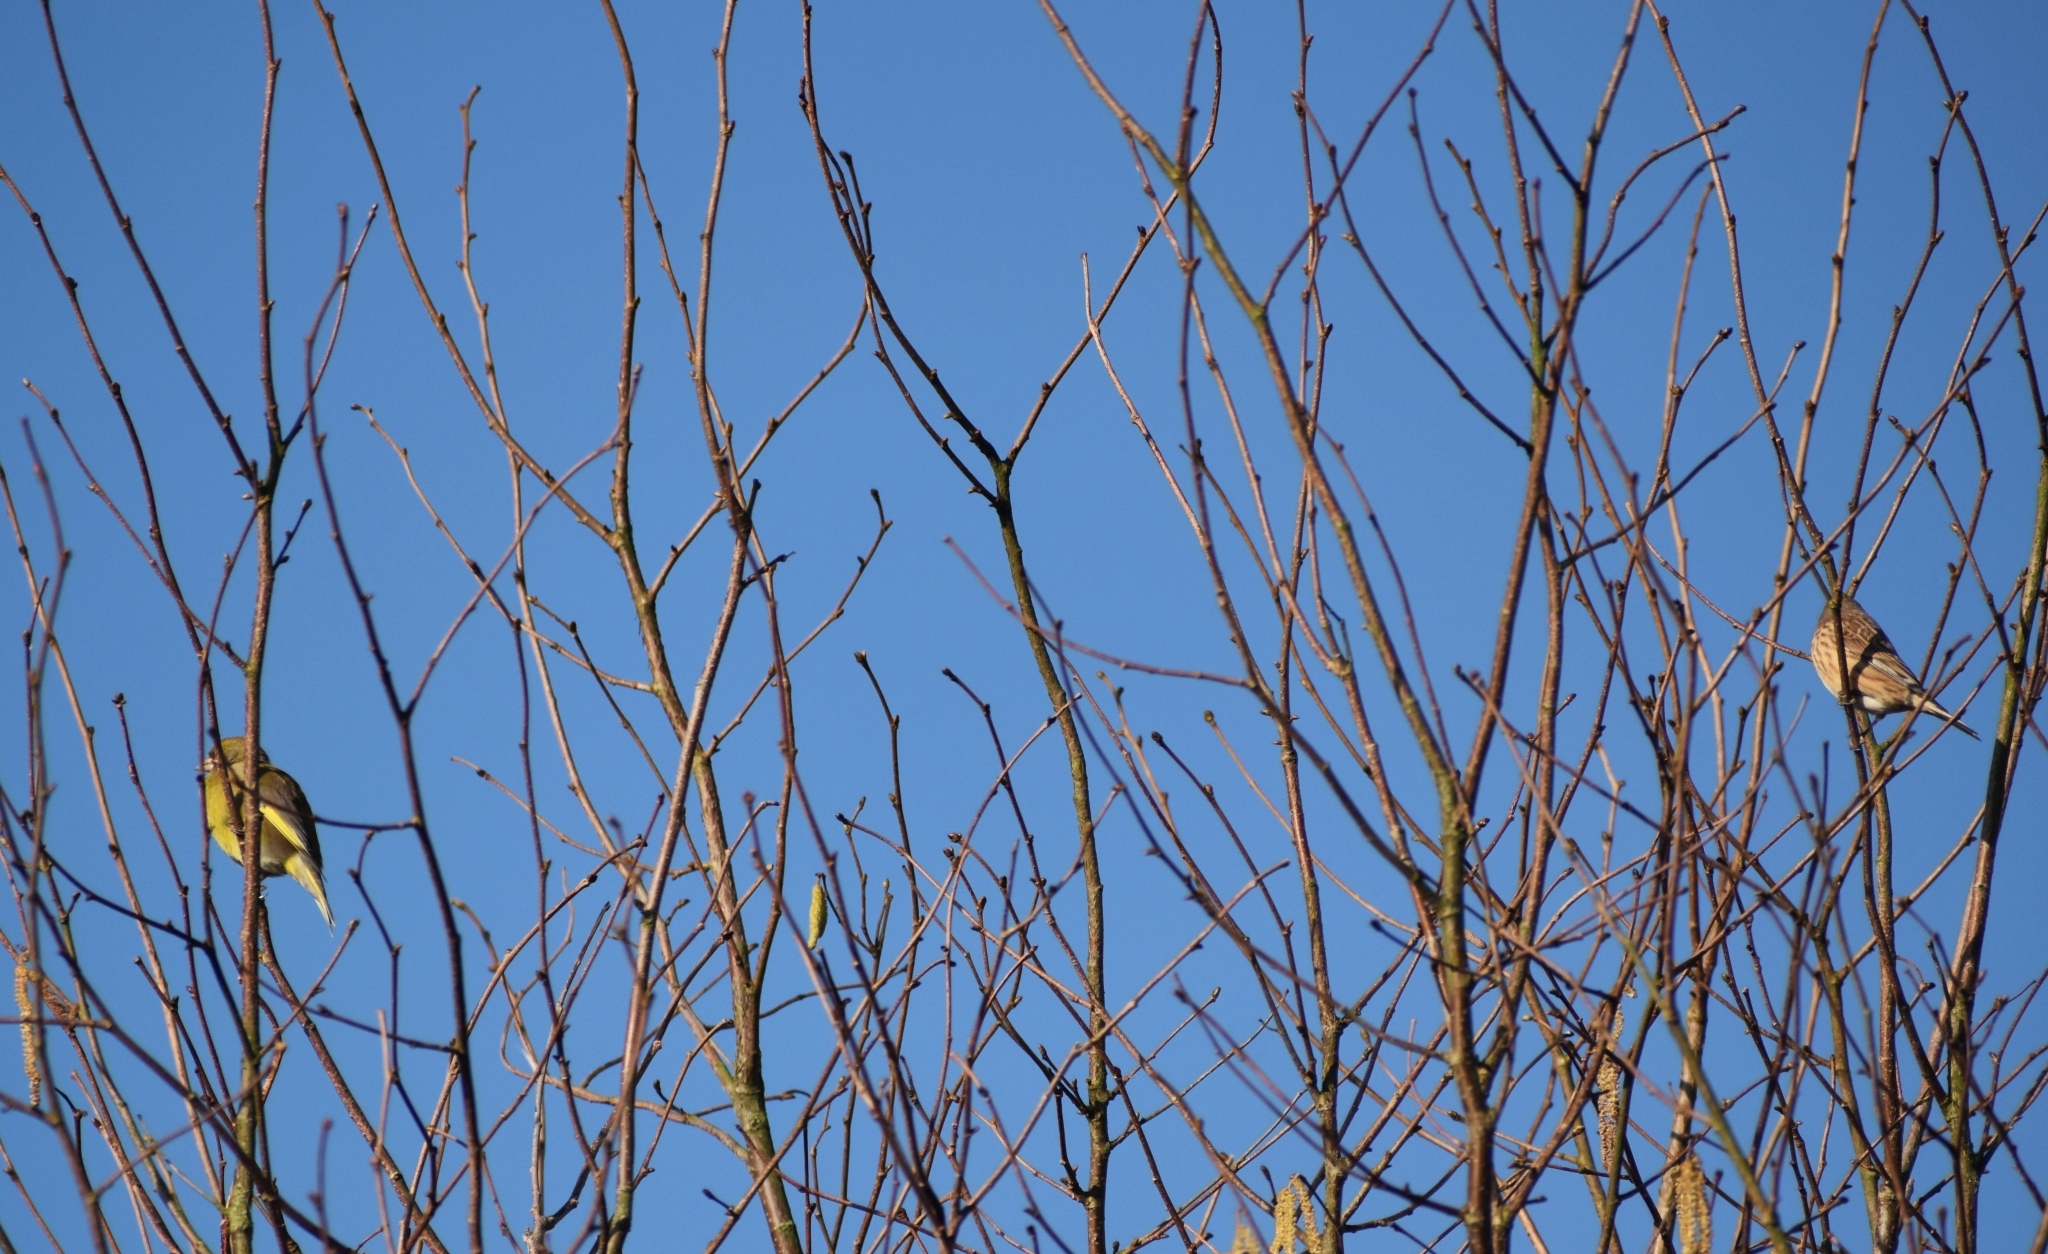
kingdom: Animalia
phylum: Chordata
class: Aves
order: Passeriformes
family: Fringillidae
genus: Linaria
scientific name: Linaria cannabina
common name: Common linnet
